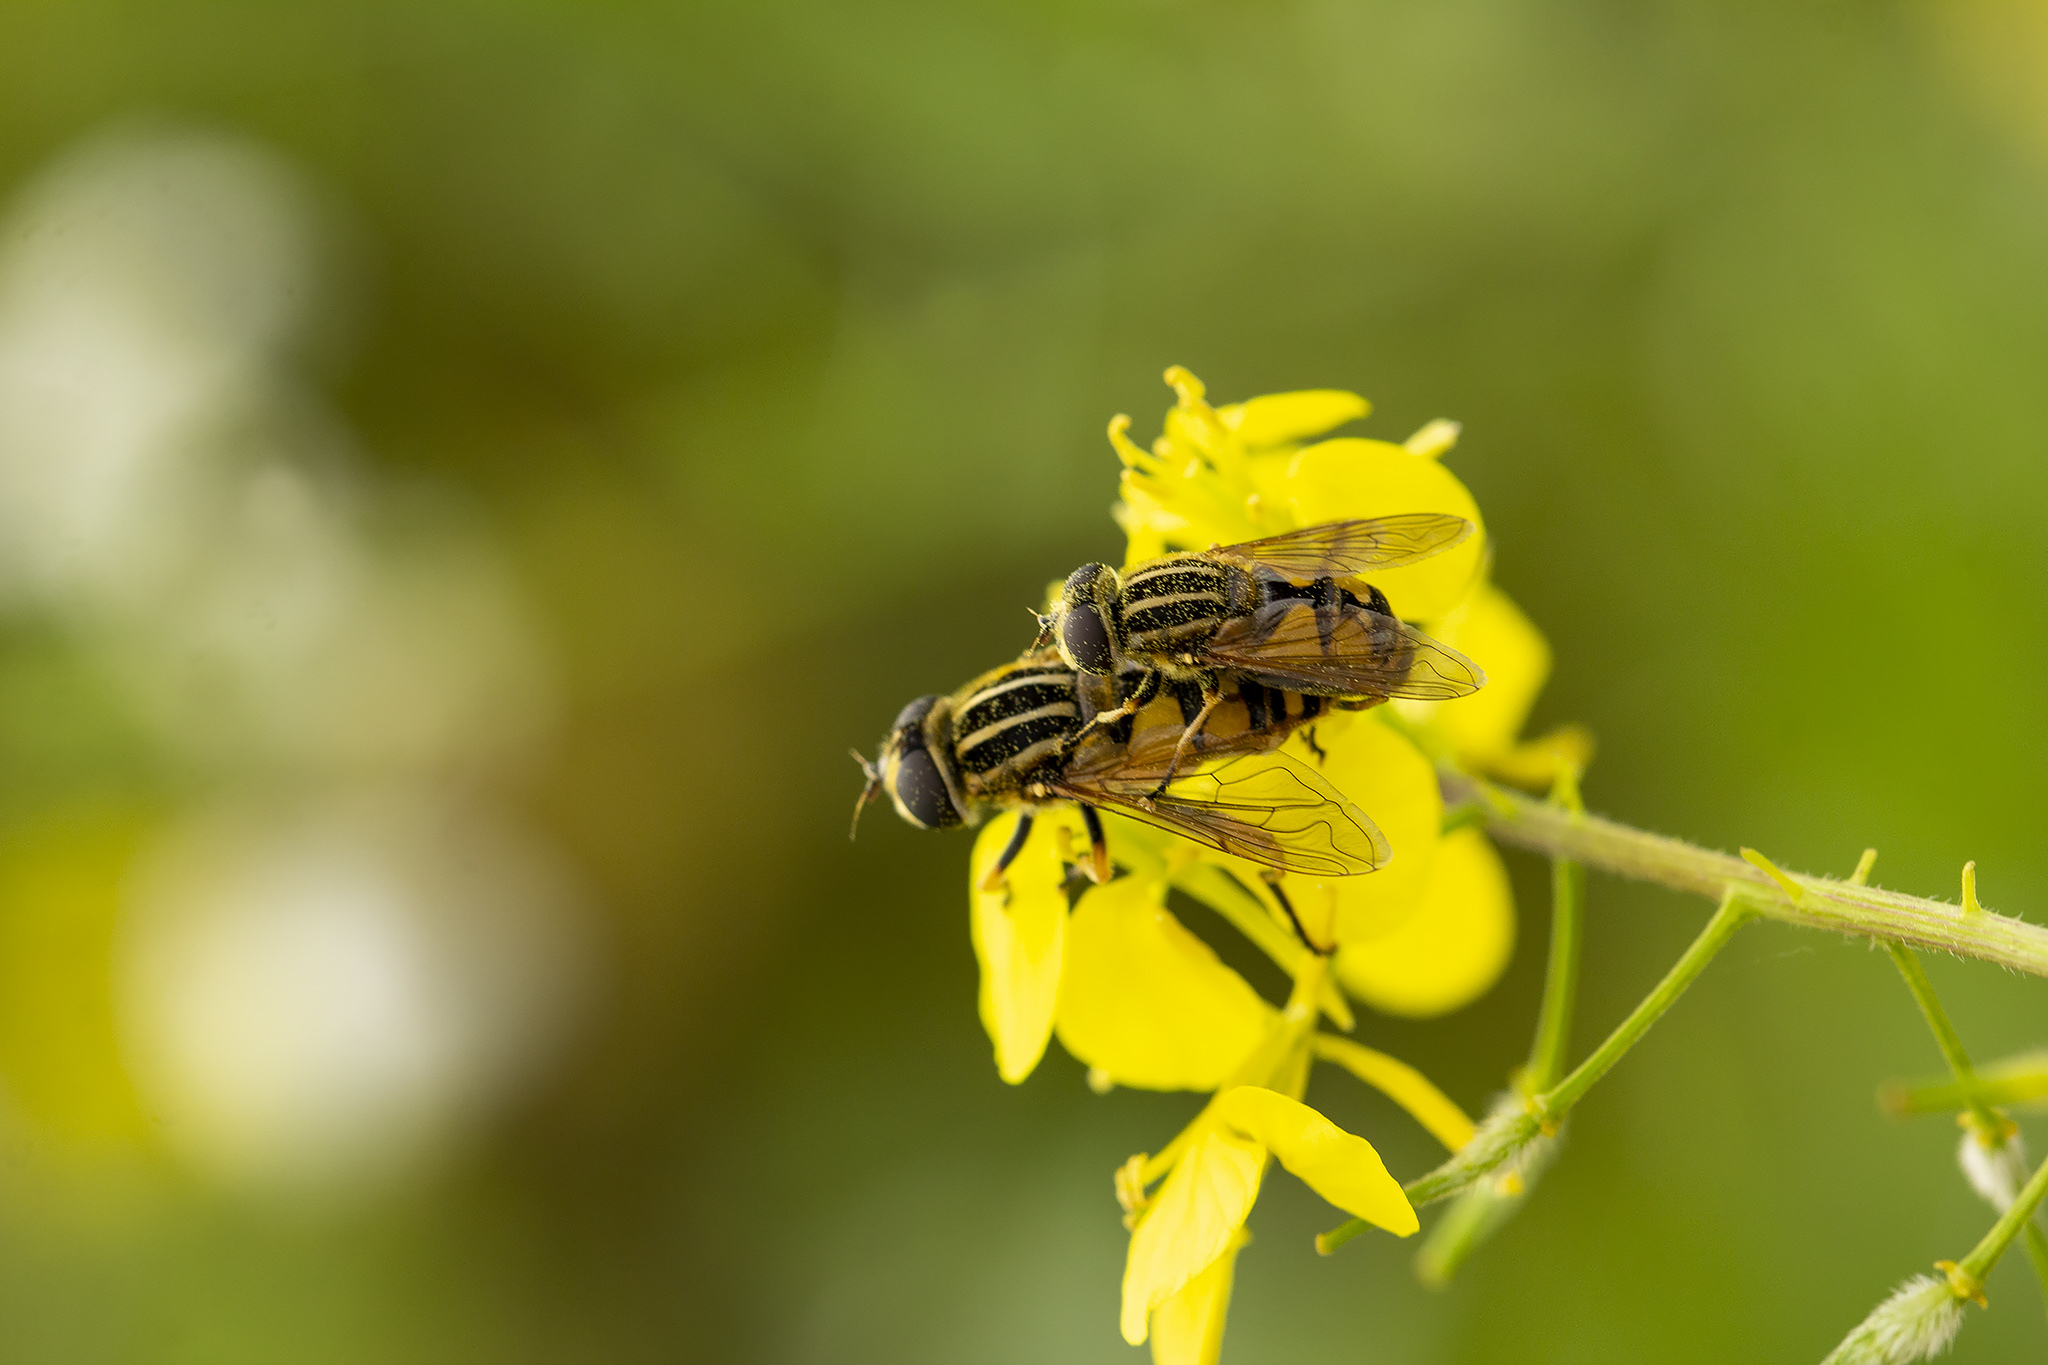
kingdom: Animalia
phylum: Arthropoda
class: Insecta
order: Diptera
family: Syrphidae
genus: Helophilus
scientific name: Helophilus pendulus
